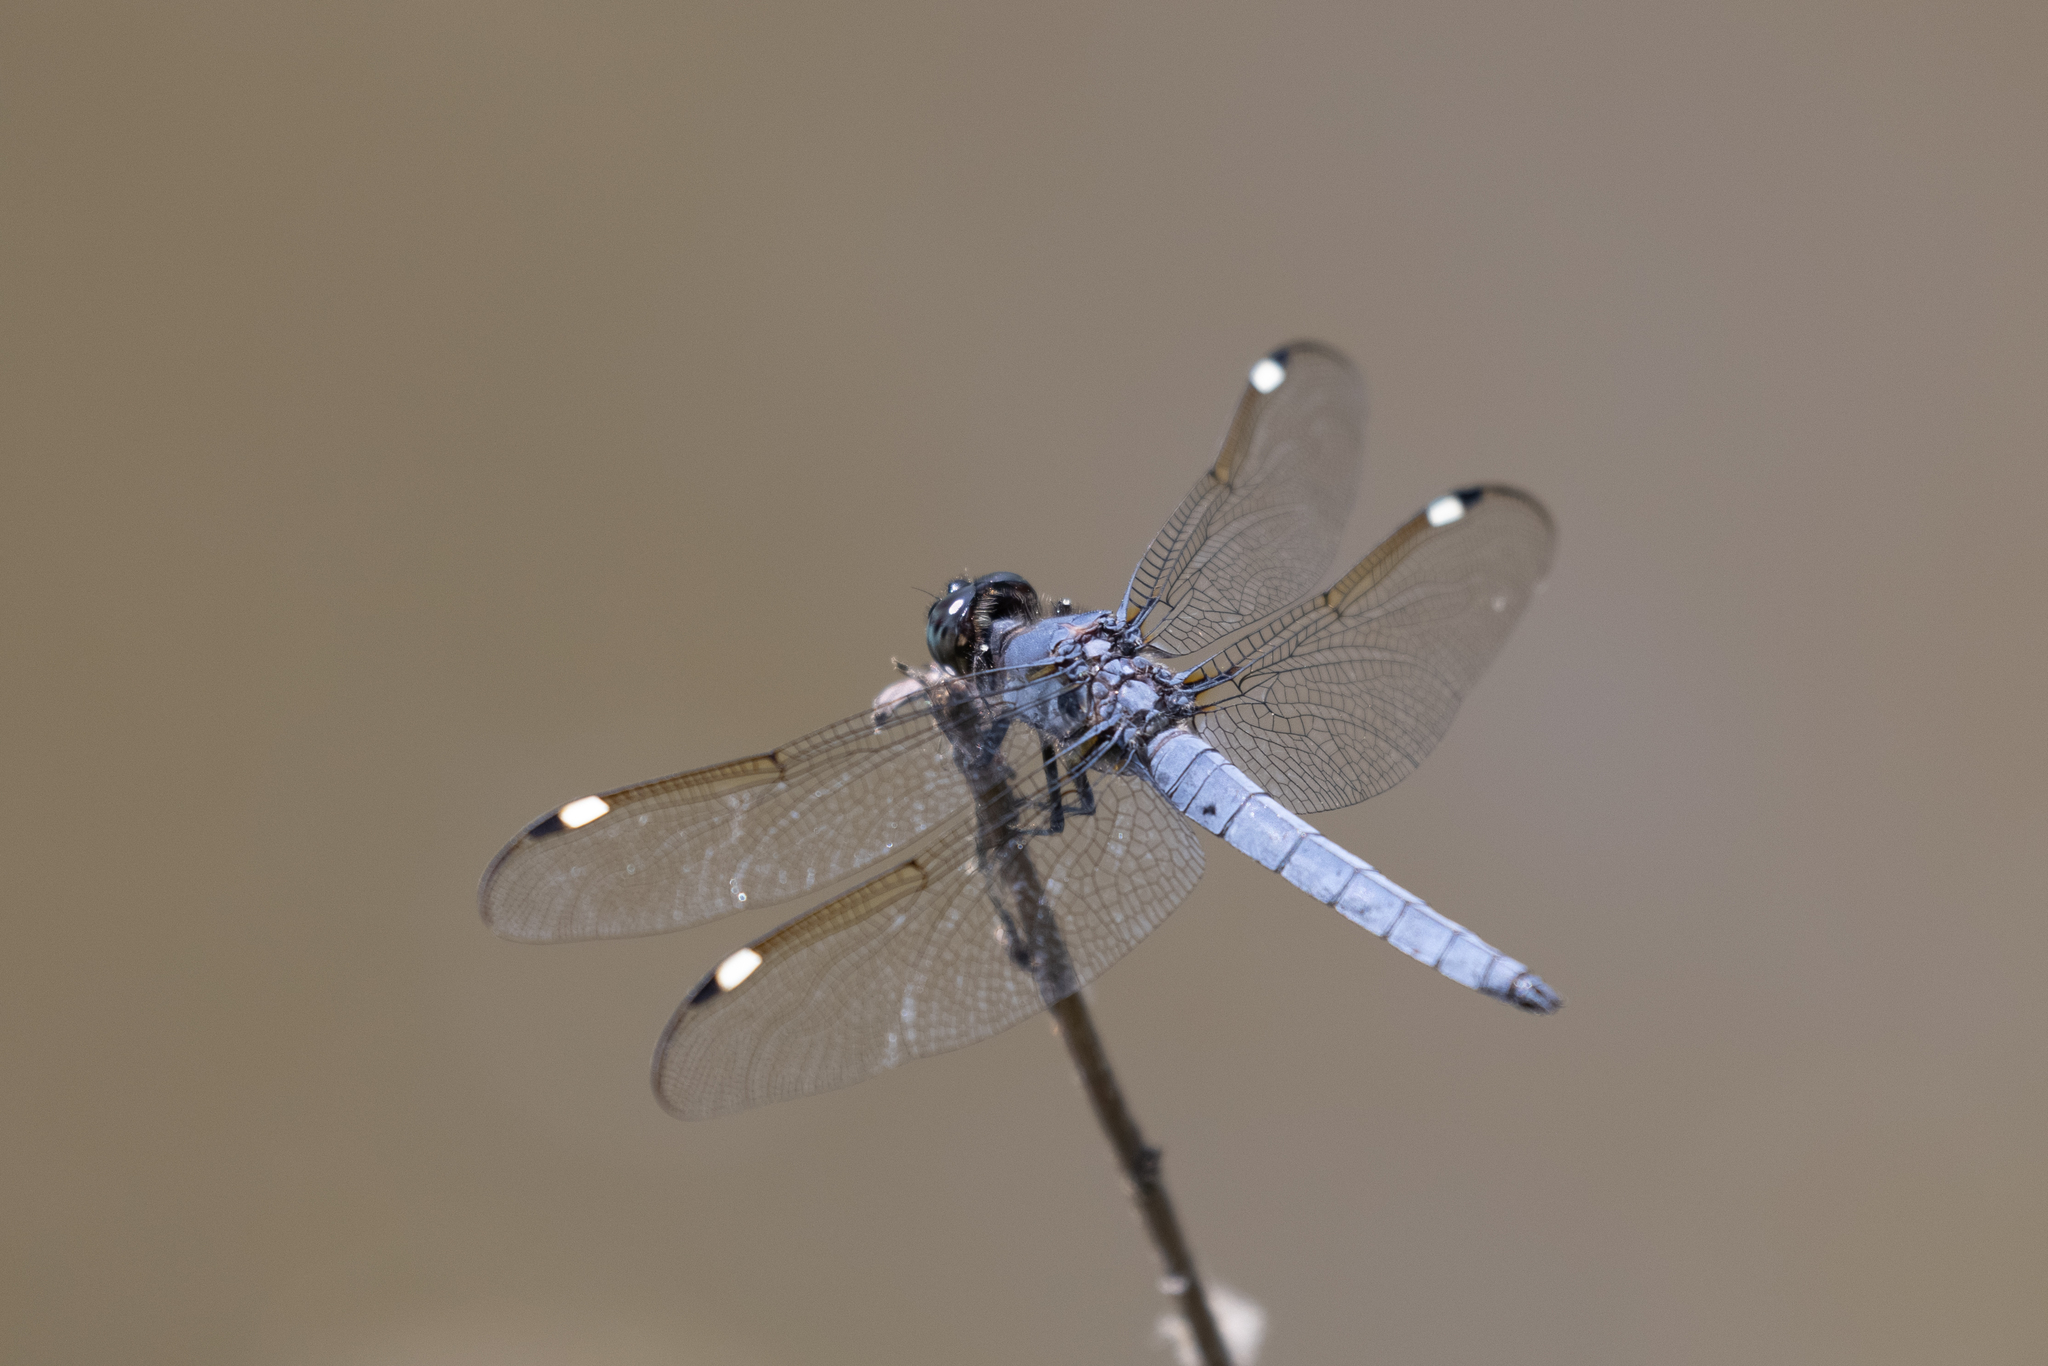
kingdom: Animalia
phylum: Arthropoda
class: Insecta
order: Odonata
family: Libellulidae
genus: Libellula
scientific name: Libellula cyanea
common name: Spangled skimmer
